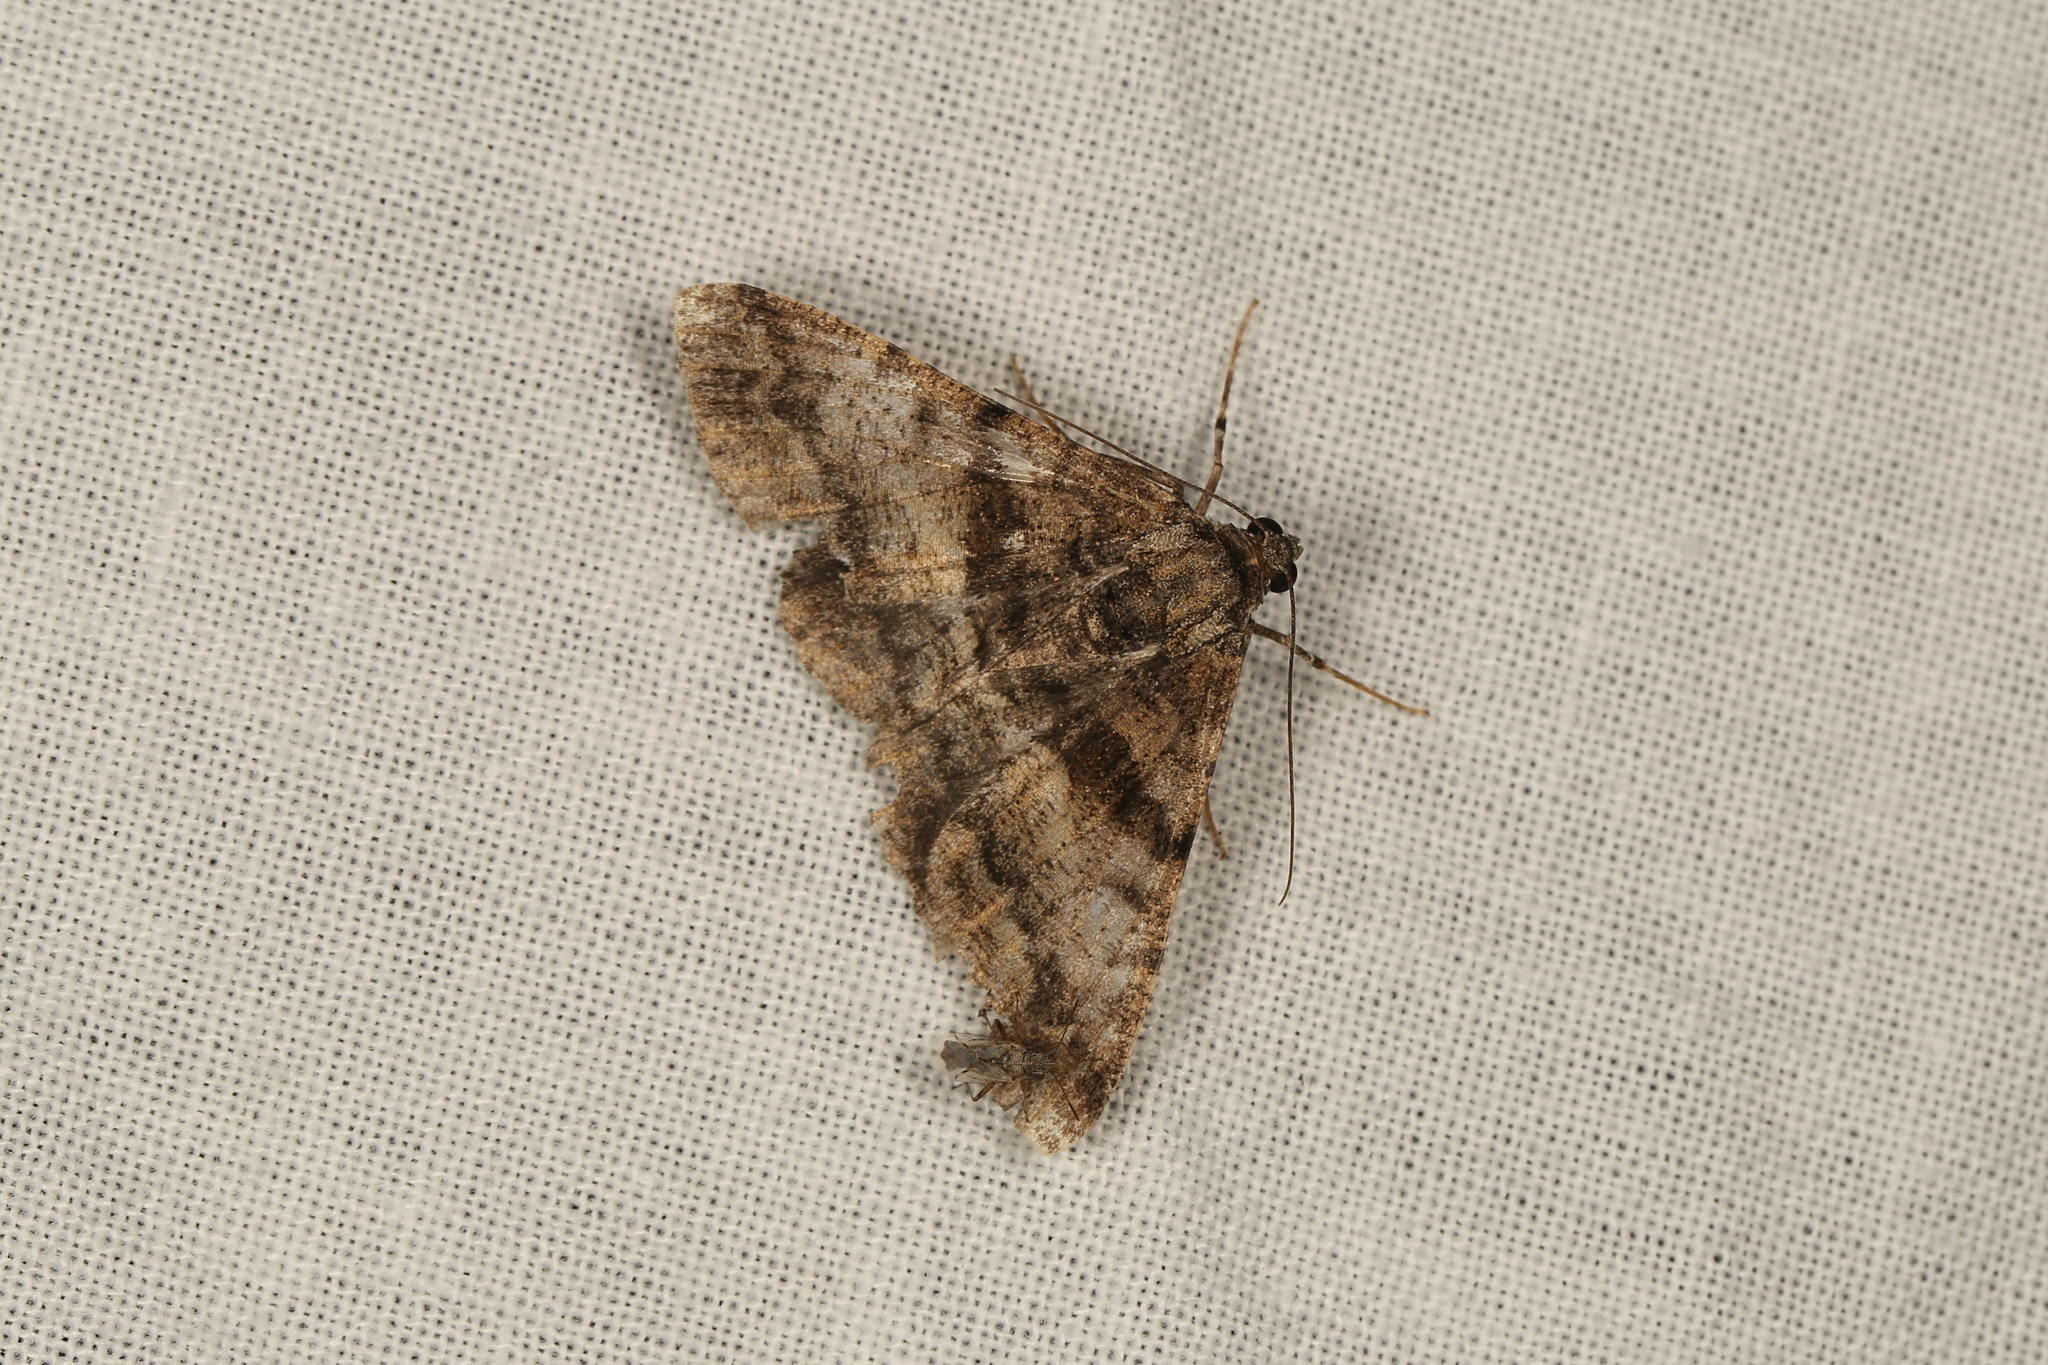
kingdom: Animalia
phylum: Arthropoda
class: Insecta
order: Lepidoptera
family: Geometridae
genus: Gastrinodes
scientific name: Gastrinodes argoplaca
